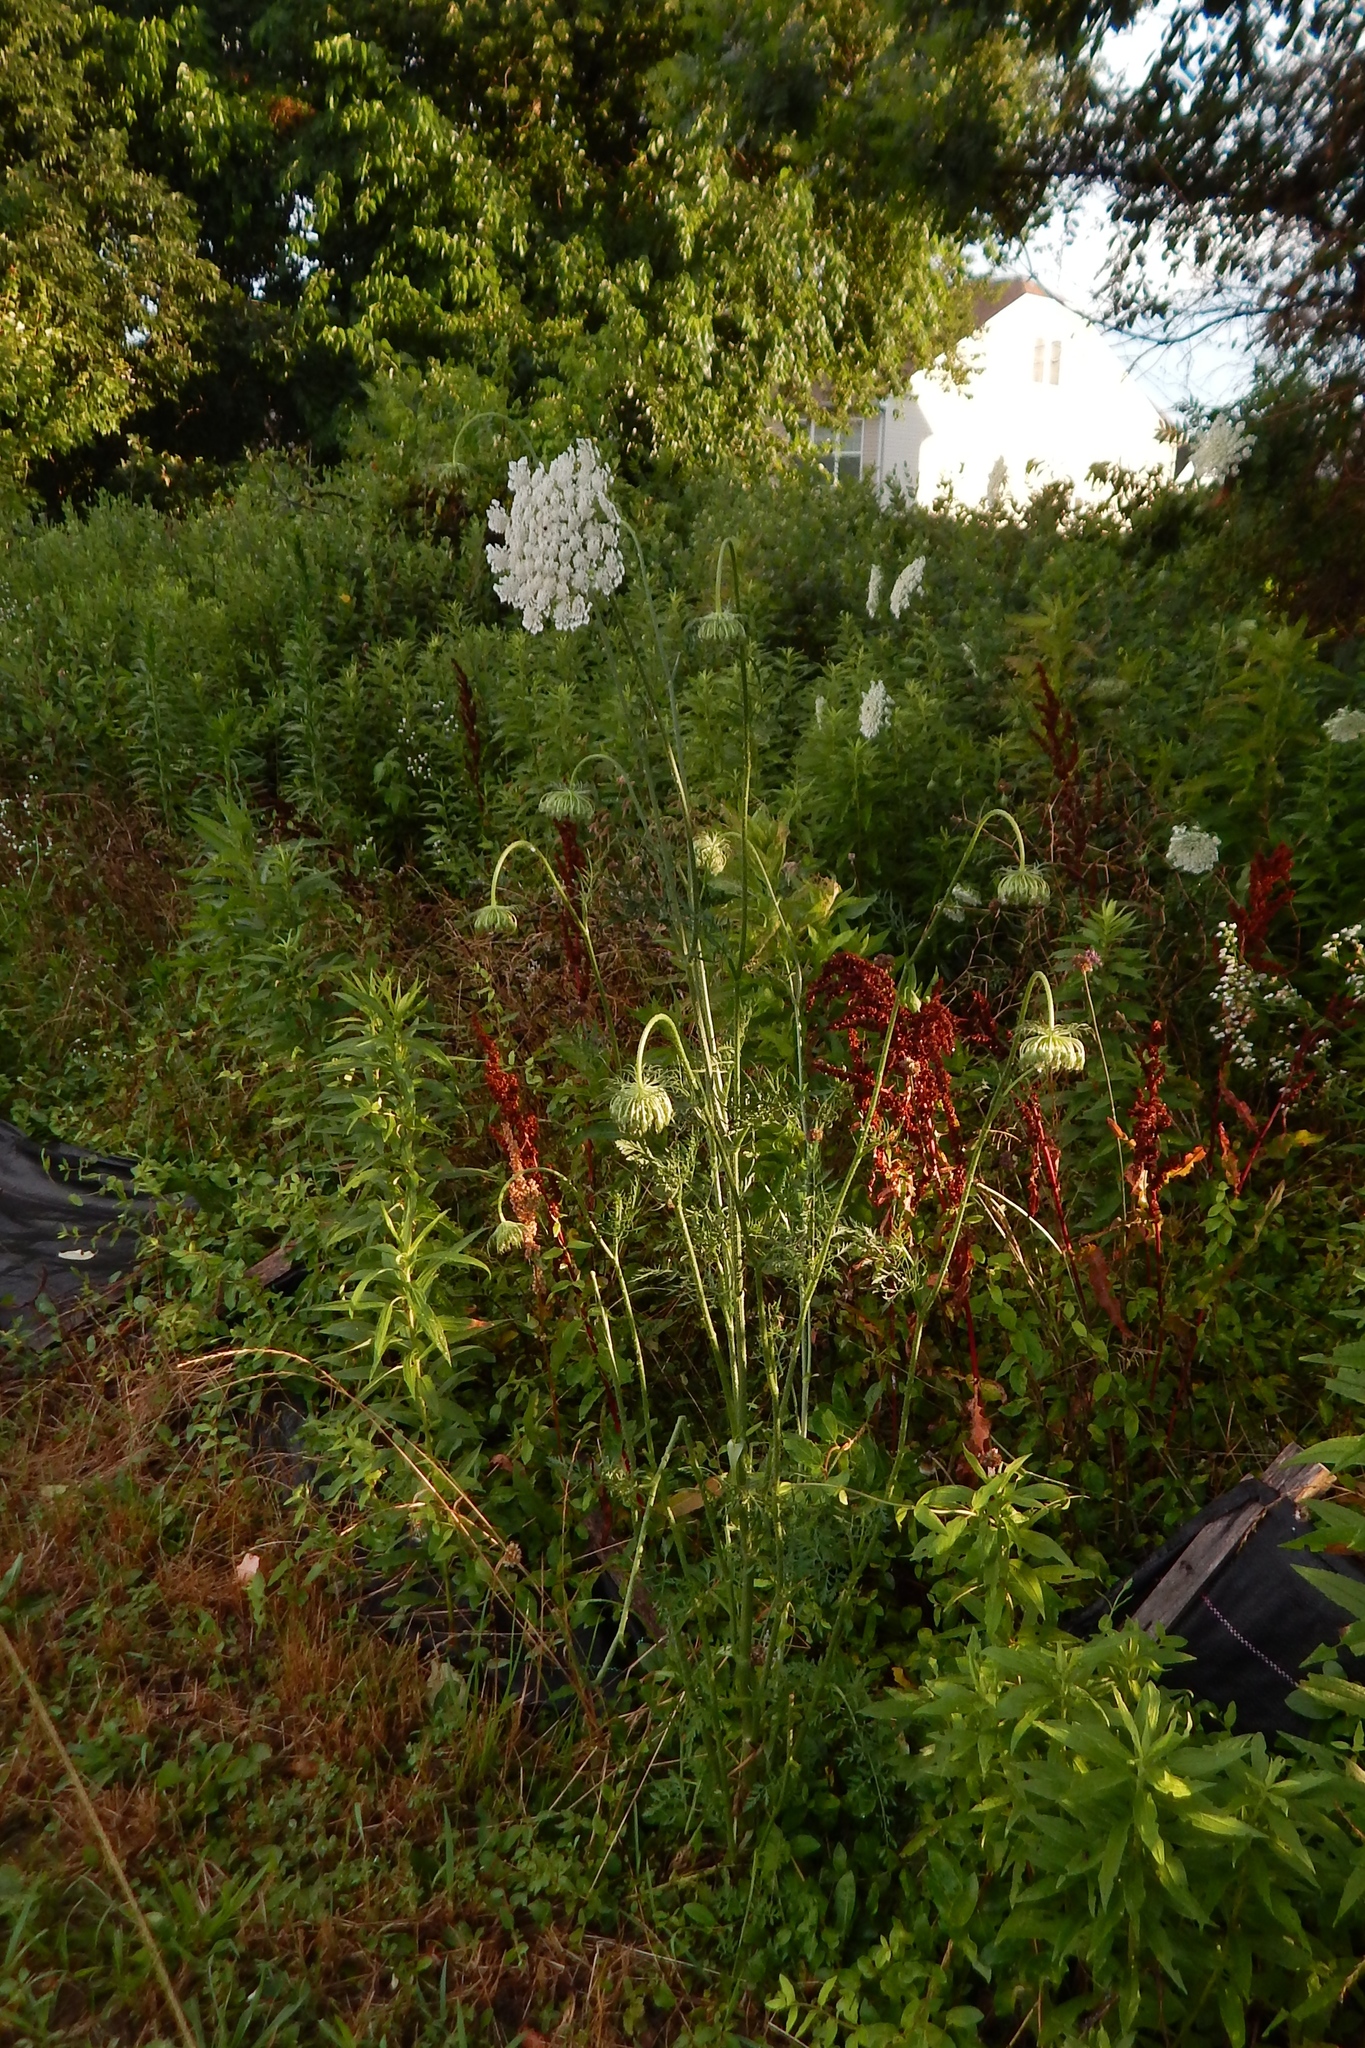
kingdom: Plantae
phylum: Tracheophyta
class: Magnoliopsida
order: Apiales
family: Apiaceae
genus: Daucus
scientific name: Daucus carota
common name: Wild carrot
